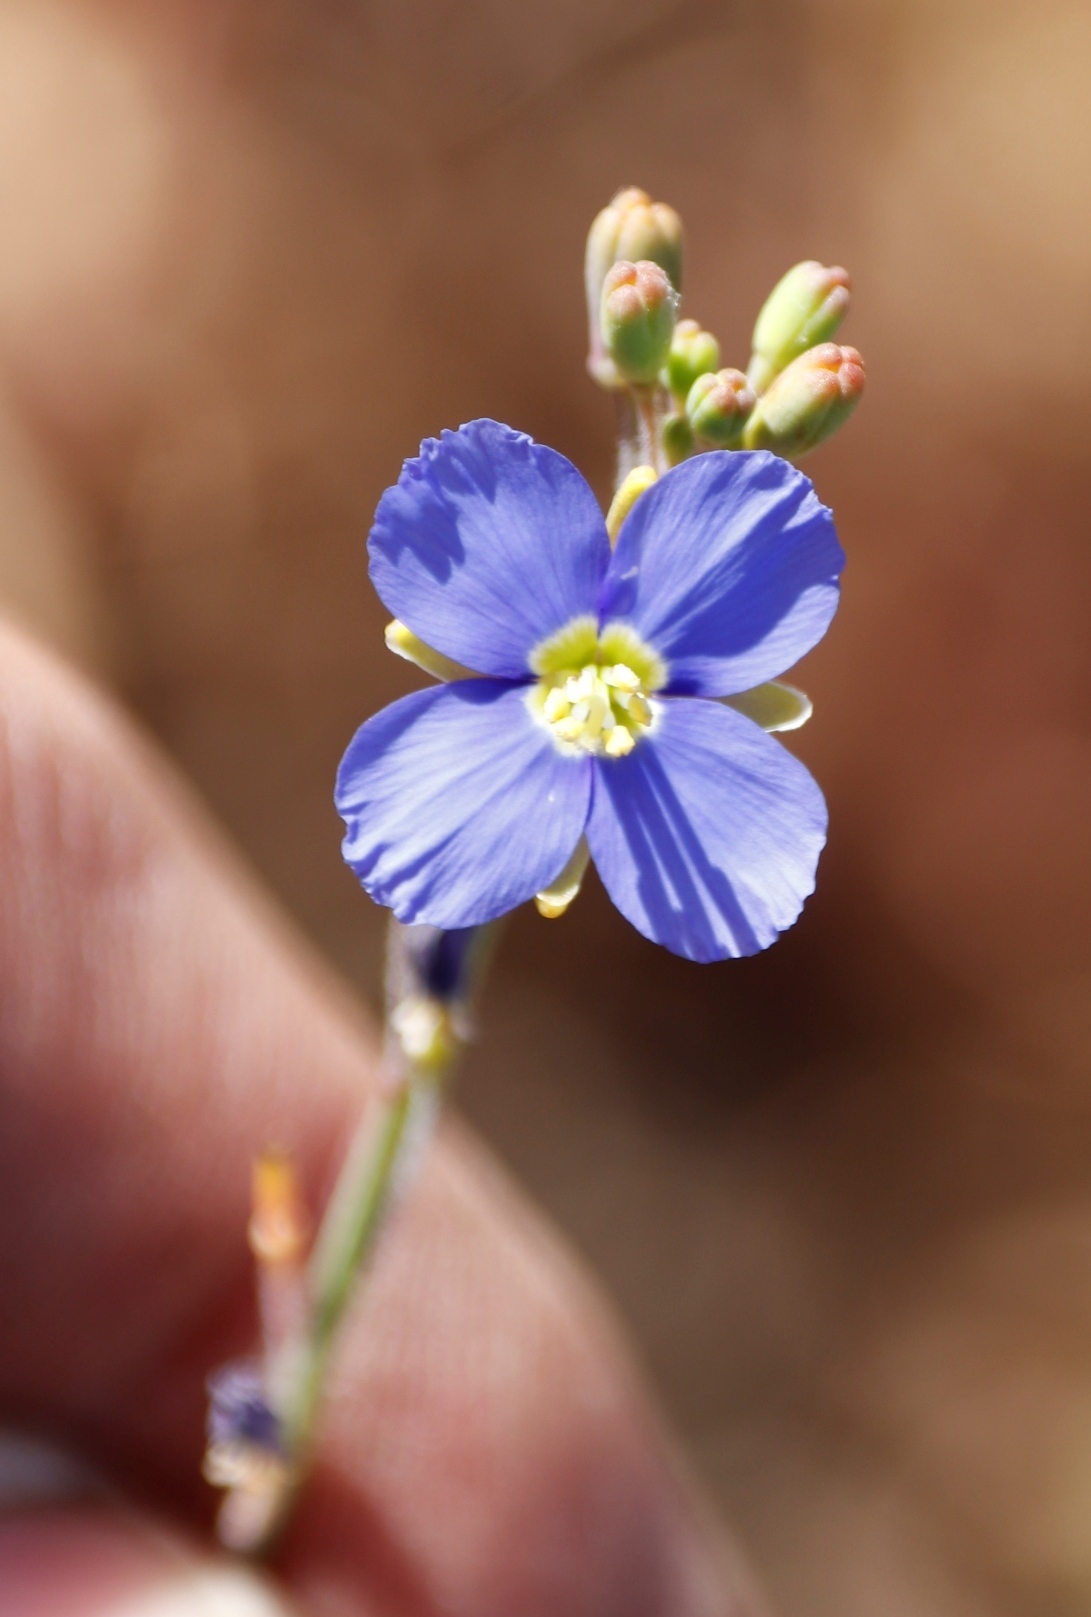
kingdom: Plantae
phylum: Tracheophyta
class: Magnoliopsida
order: Brassicales
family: Brassicaceae
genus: Heliophila
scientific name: Heliophila africana
